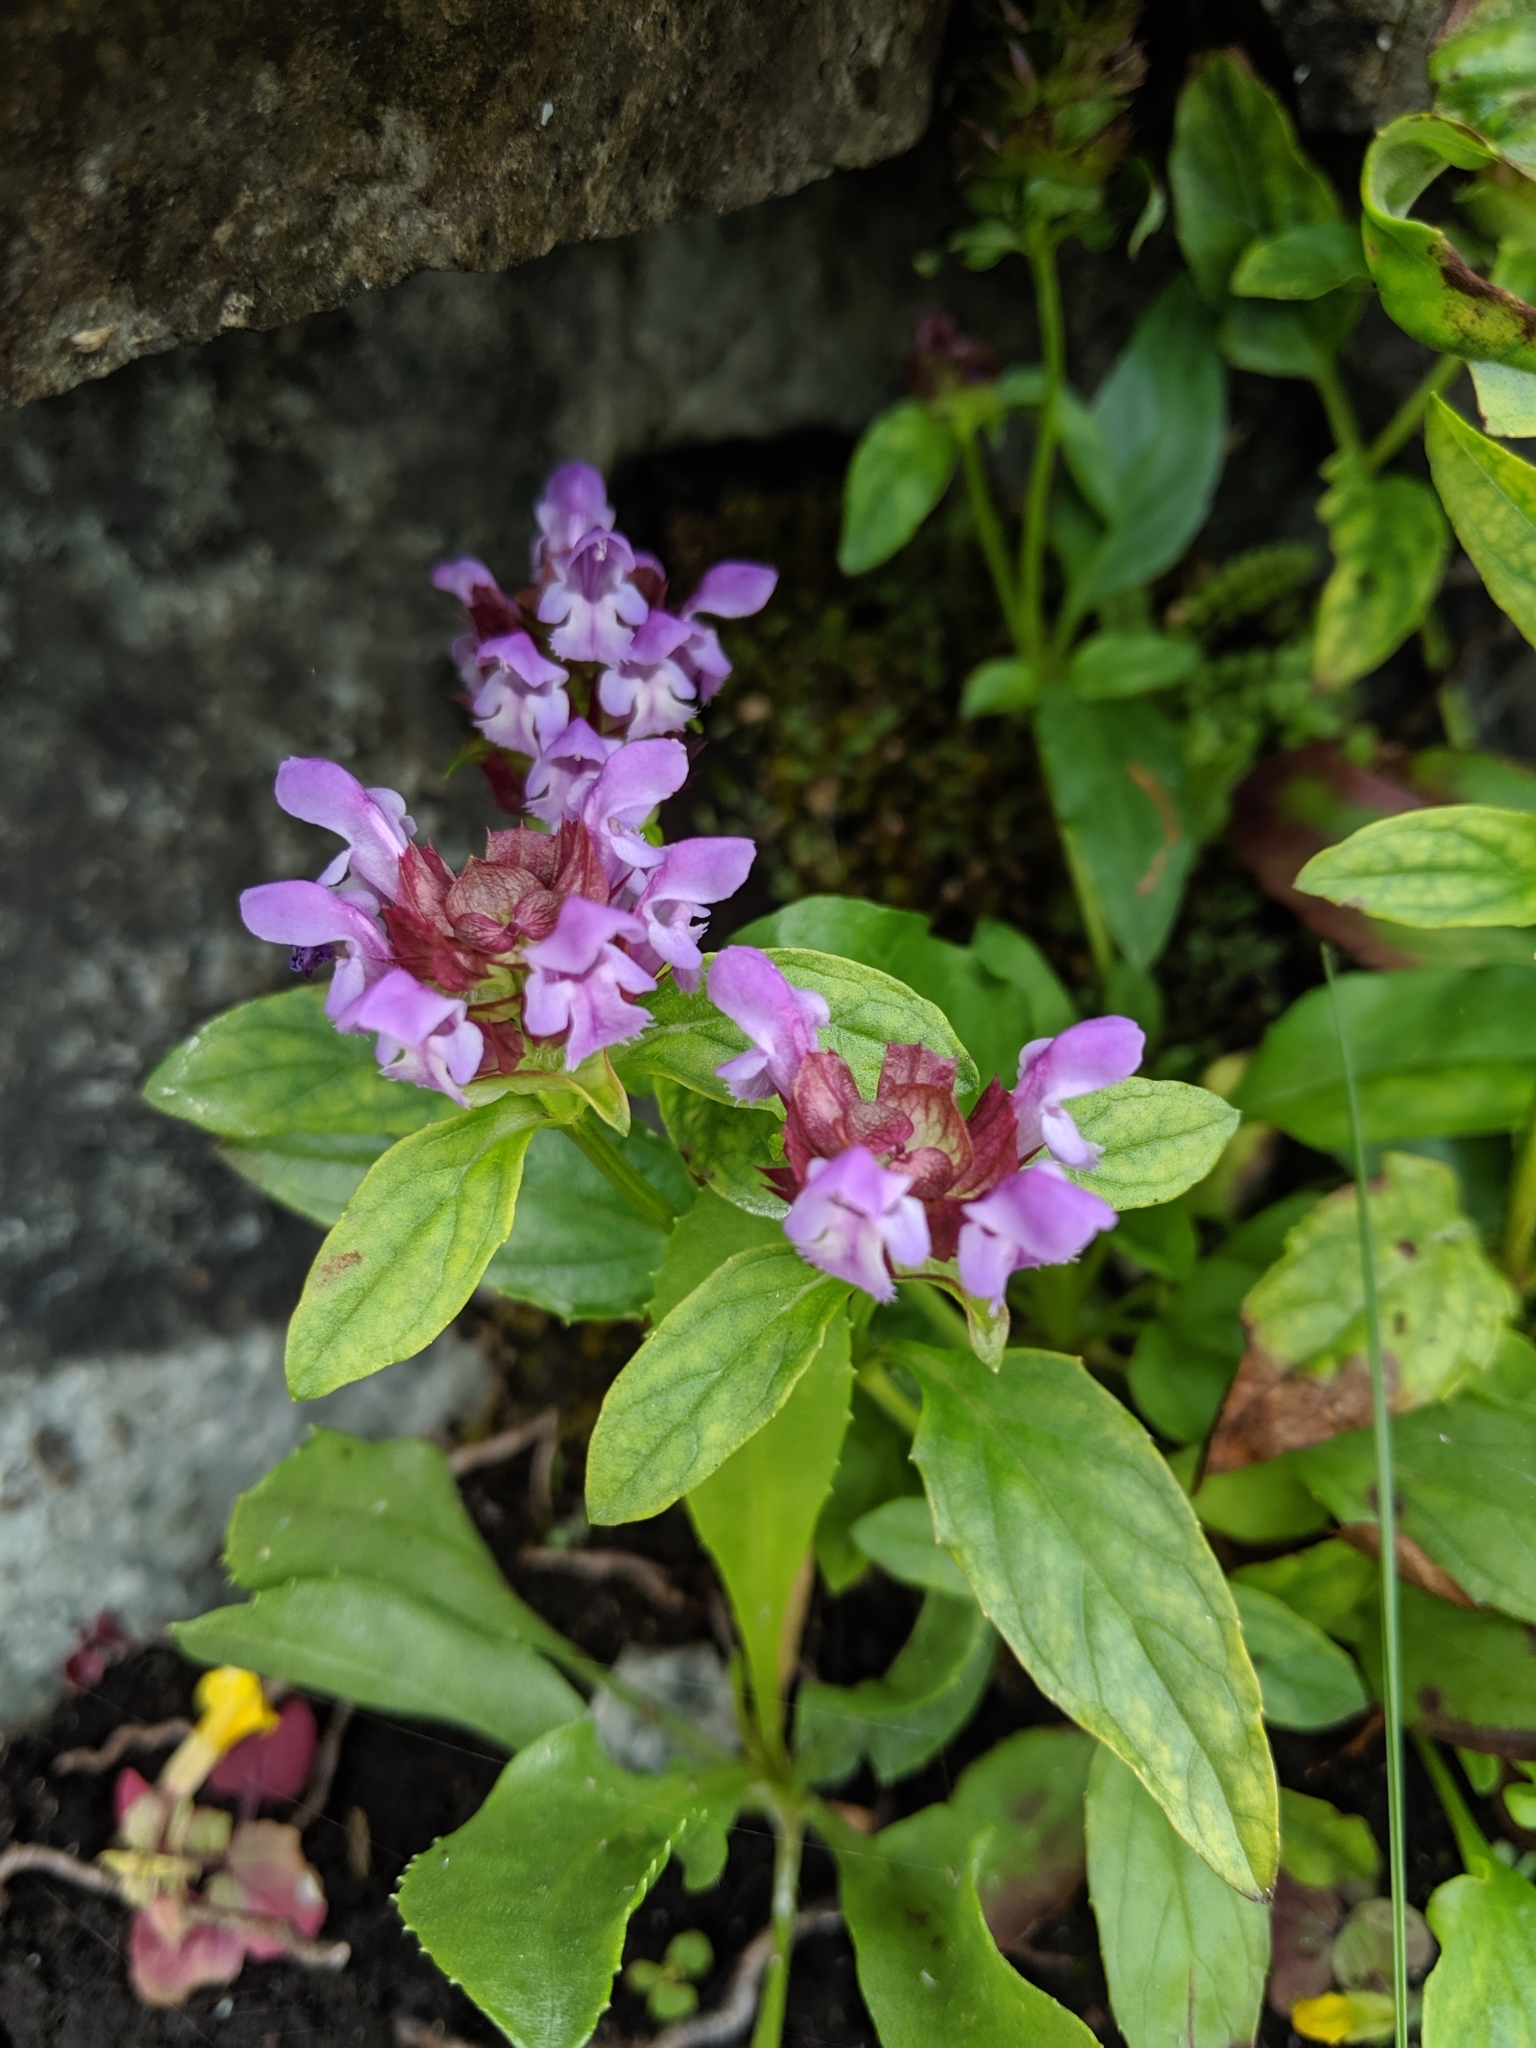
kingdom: Plantae
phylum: Tracheophyta
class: Magnoliopsida
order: Lamiales
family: Lamiaceae
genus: Prunella
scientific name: Prunella vulgaris
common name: Heal-all
